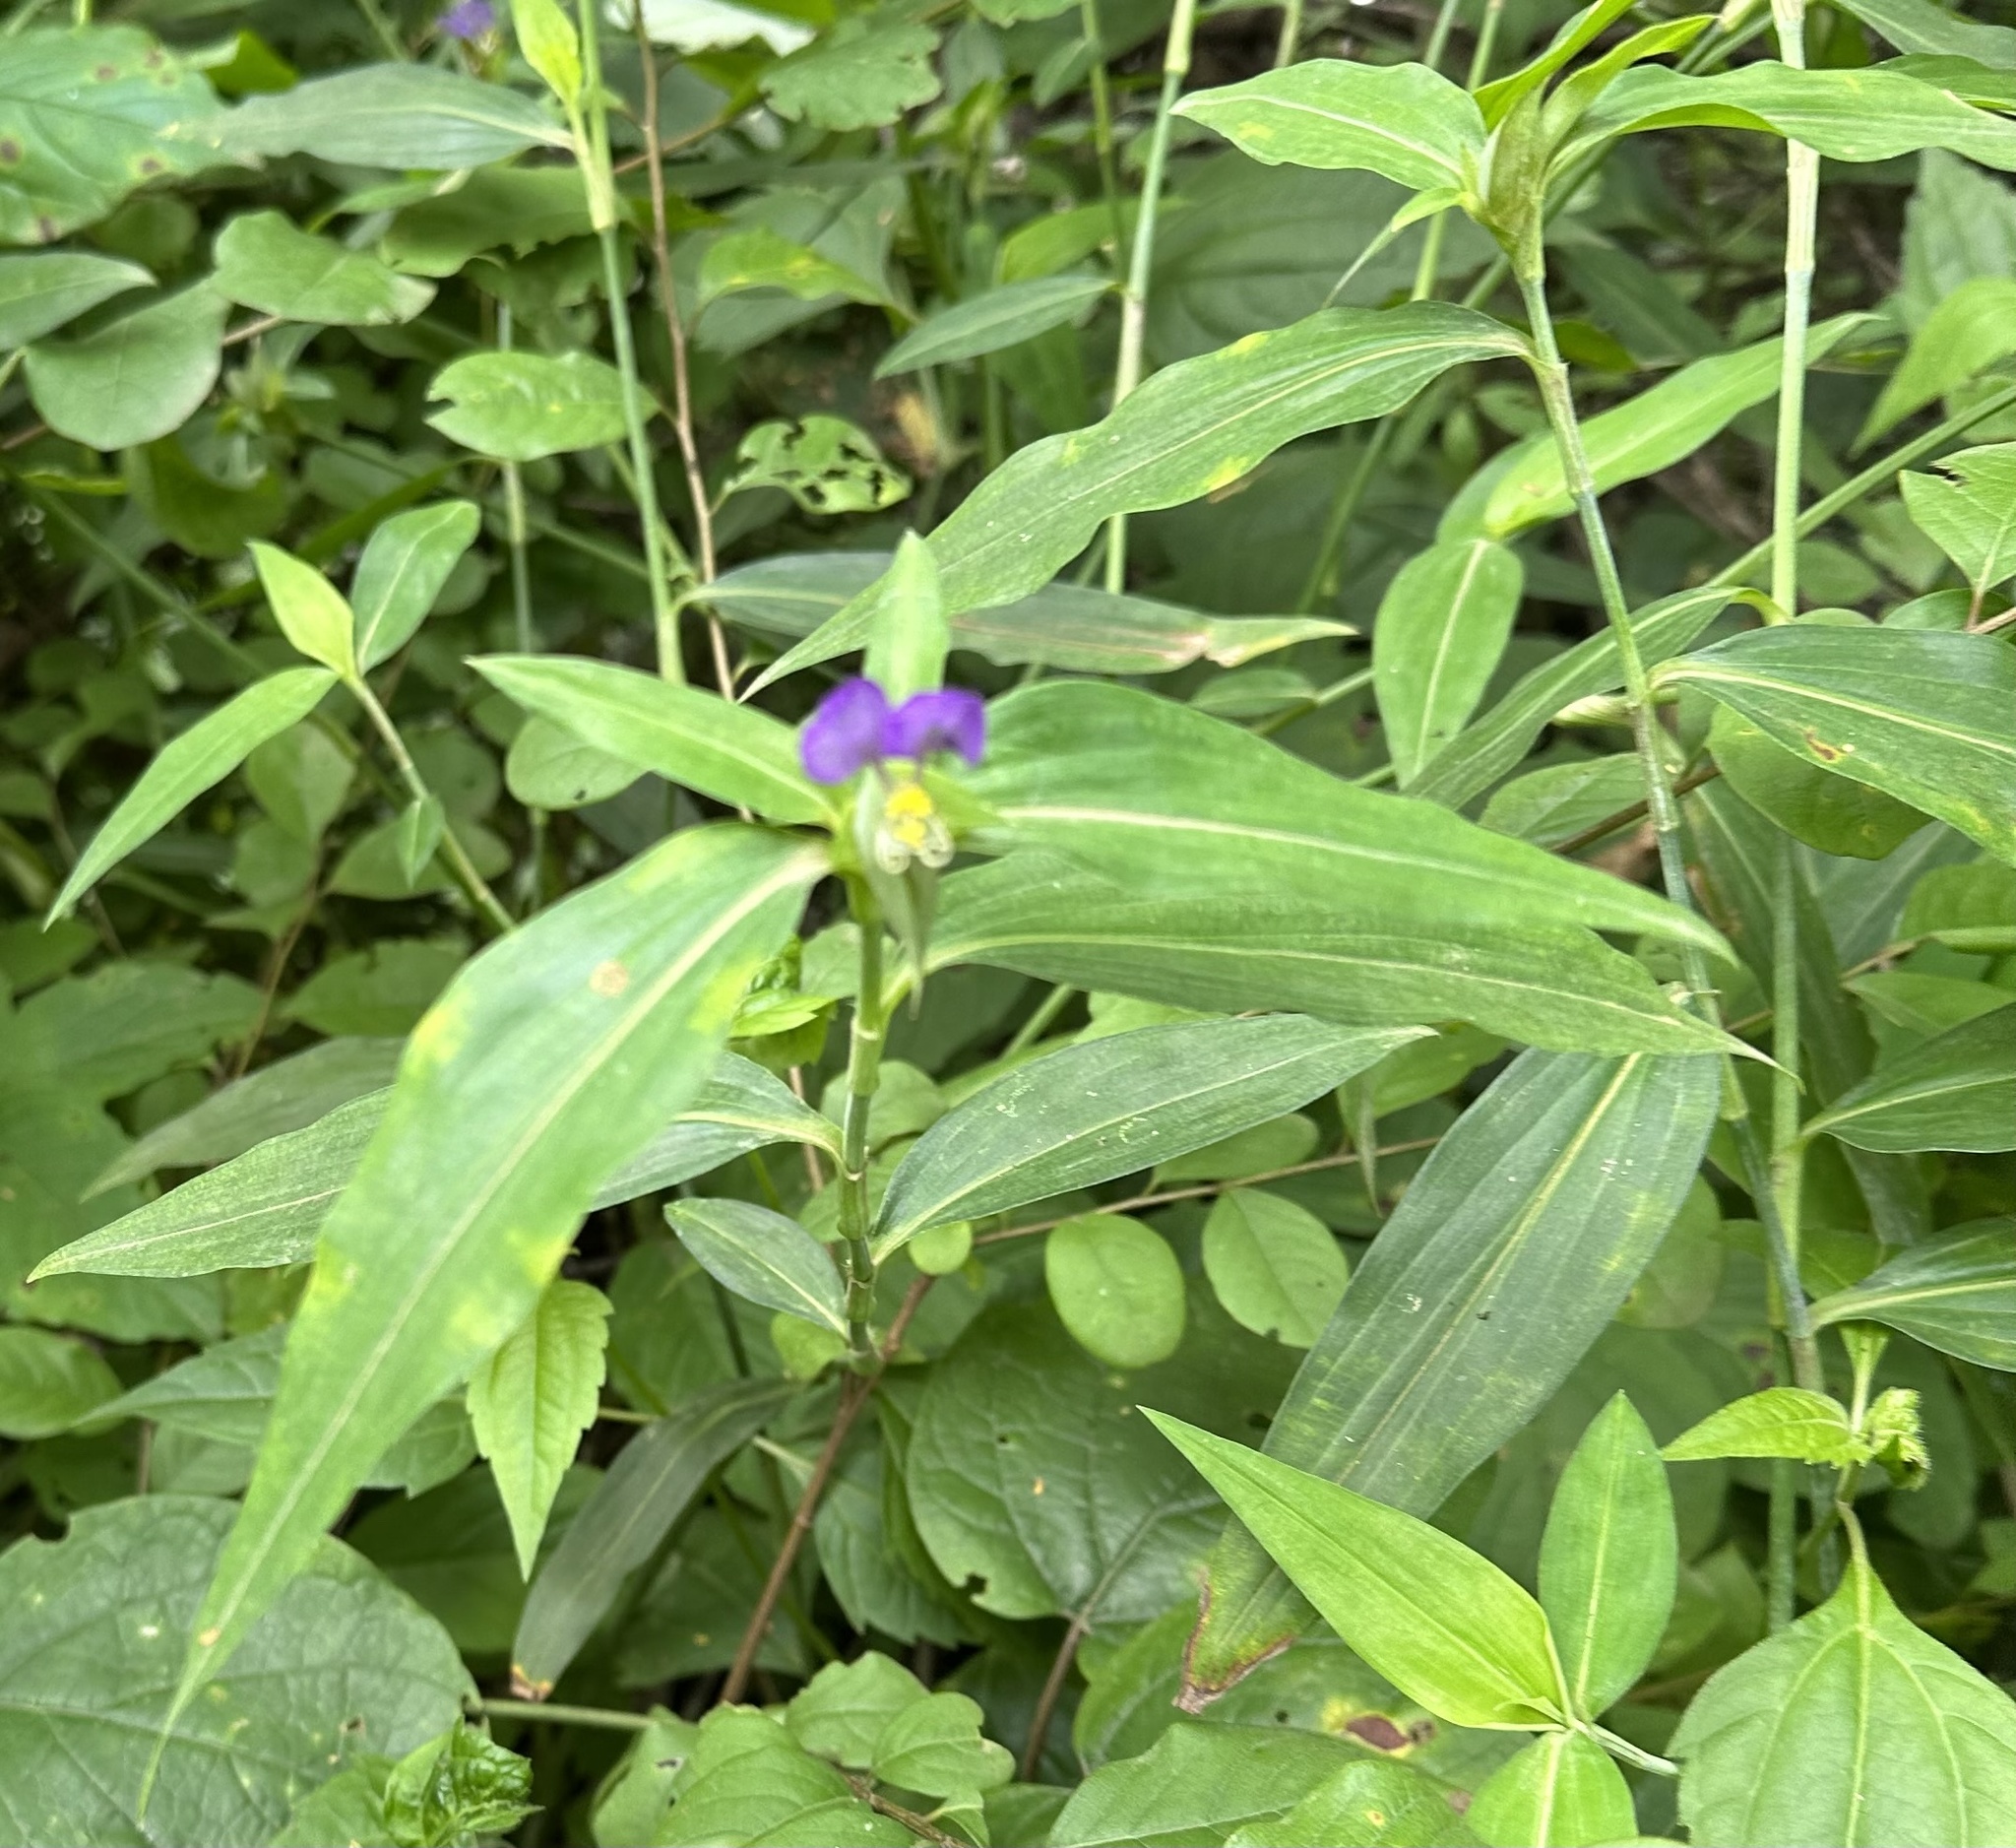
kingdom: Plantae
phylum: Tracheophyta
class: Liliopsida
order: Commelinales
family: Commelinaceae
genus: Commelina
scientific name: Commelina undulata
